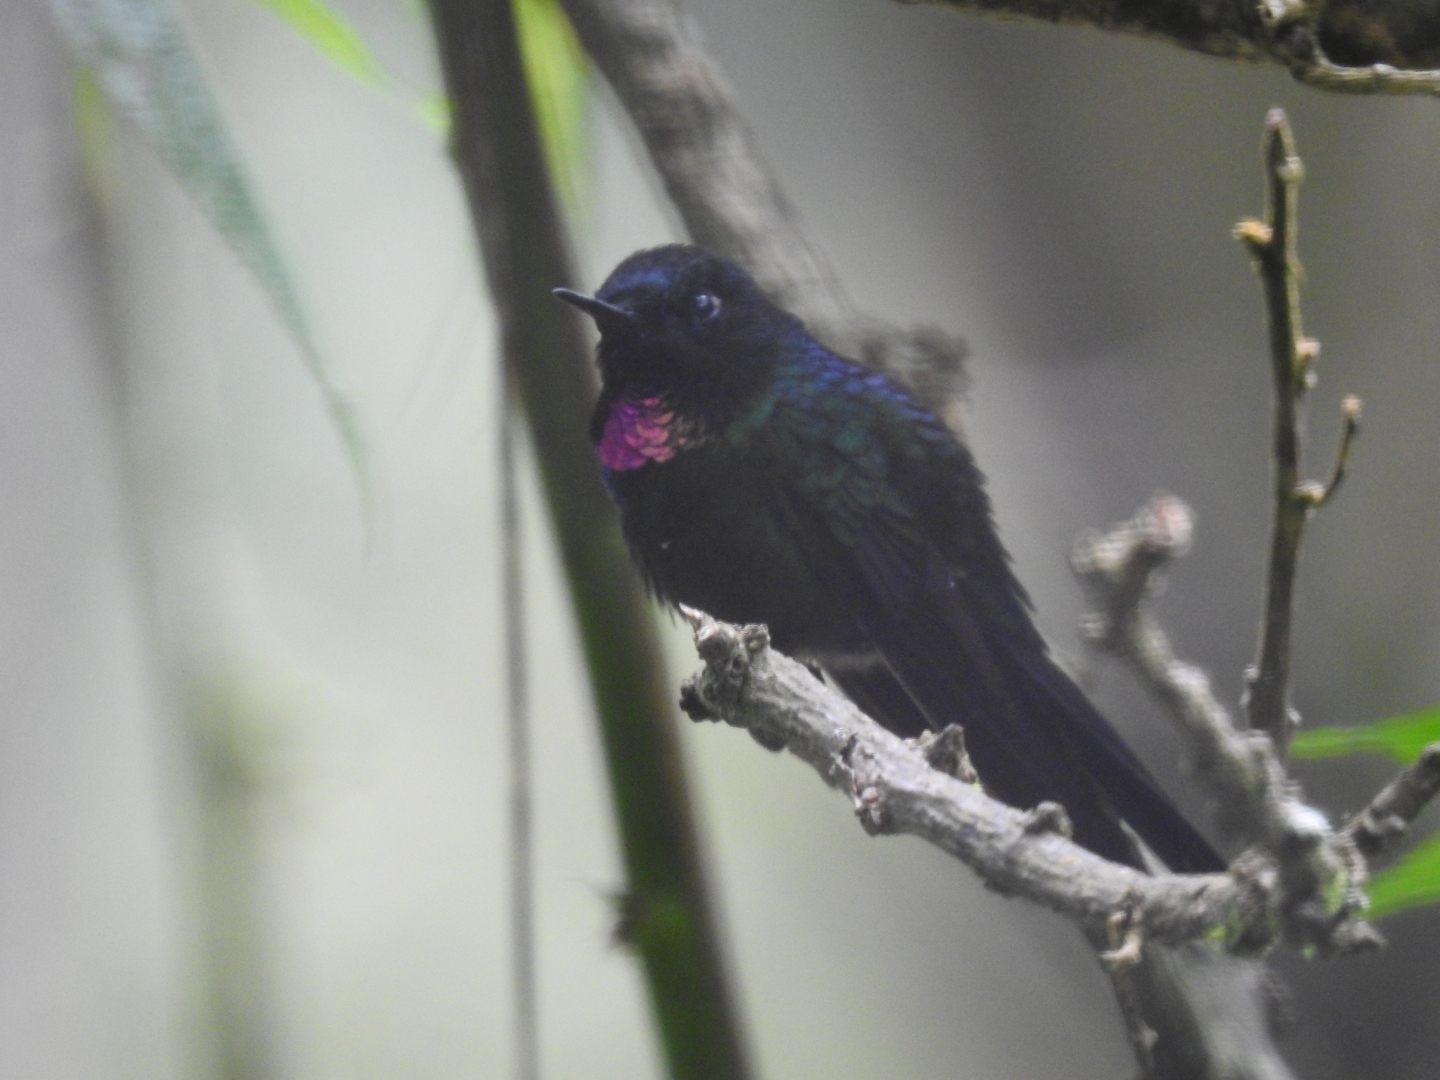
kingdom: Animalia
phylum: Chordata
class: Aves
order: Apodiformes
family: Trochilidae
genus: Heliangelus
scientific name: Heliangelus exortis
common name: Tourmaline sunangel
